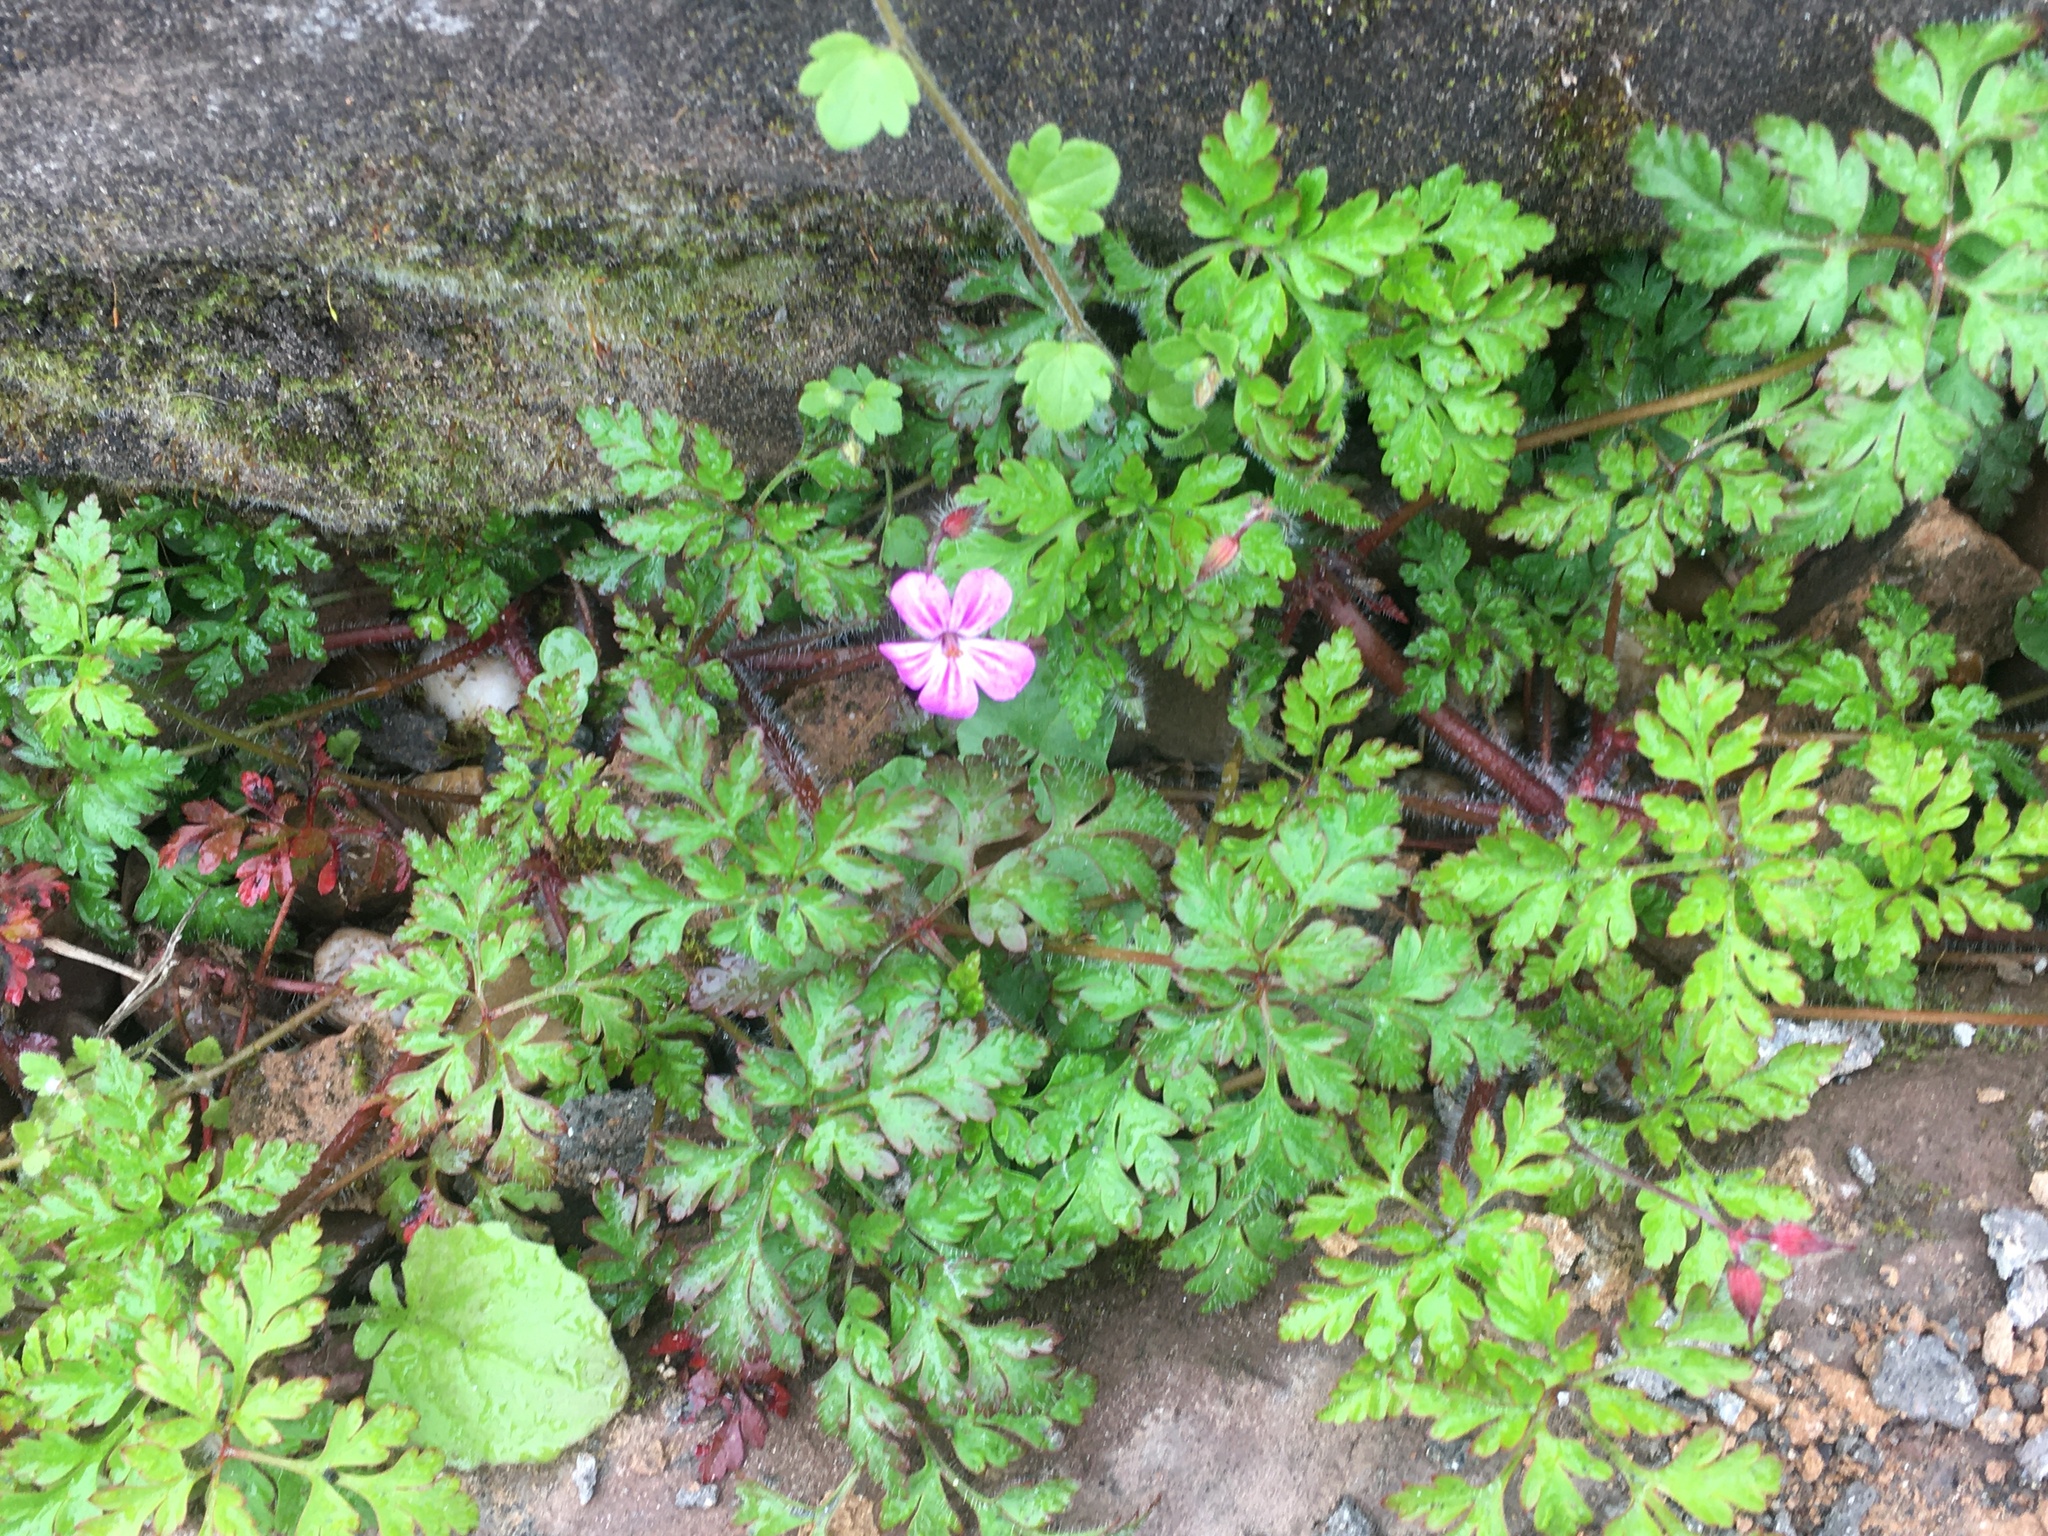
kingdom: Plantae
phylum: Tracheophyta
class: Magnoliopsida
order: Geraniales
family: Geraniaceae
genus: Geranium
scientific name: Geranium robertianum
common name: Herb-robert
